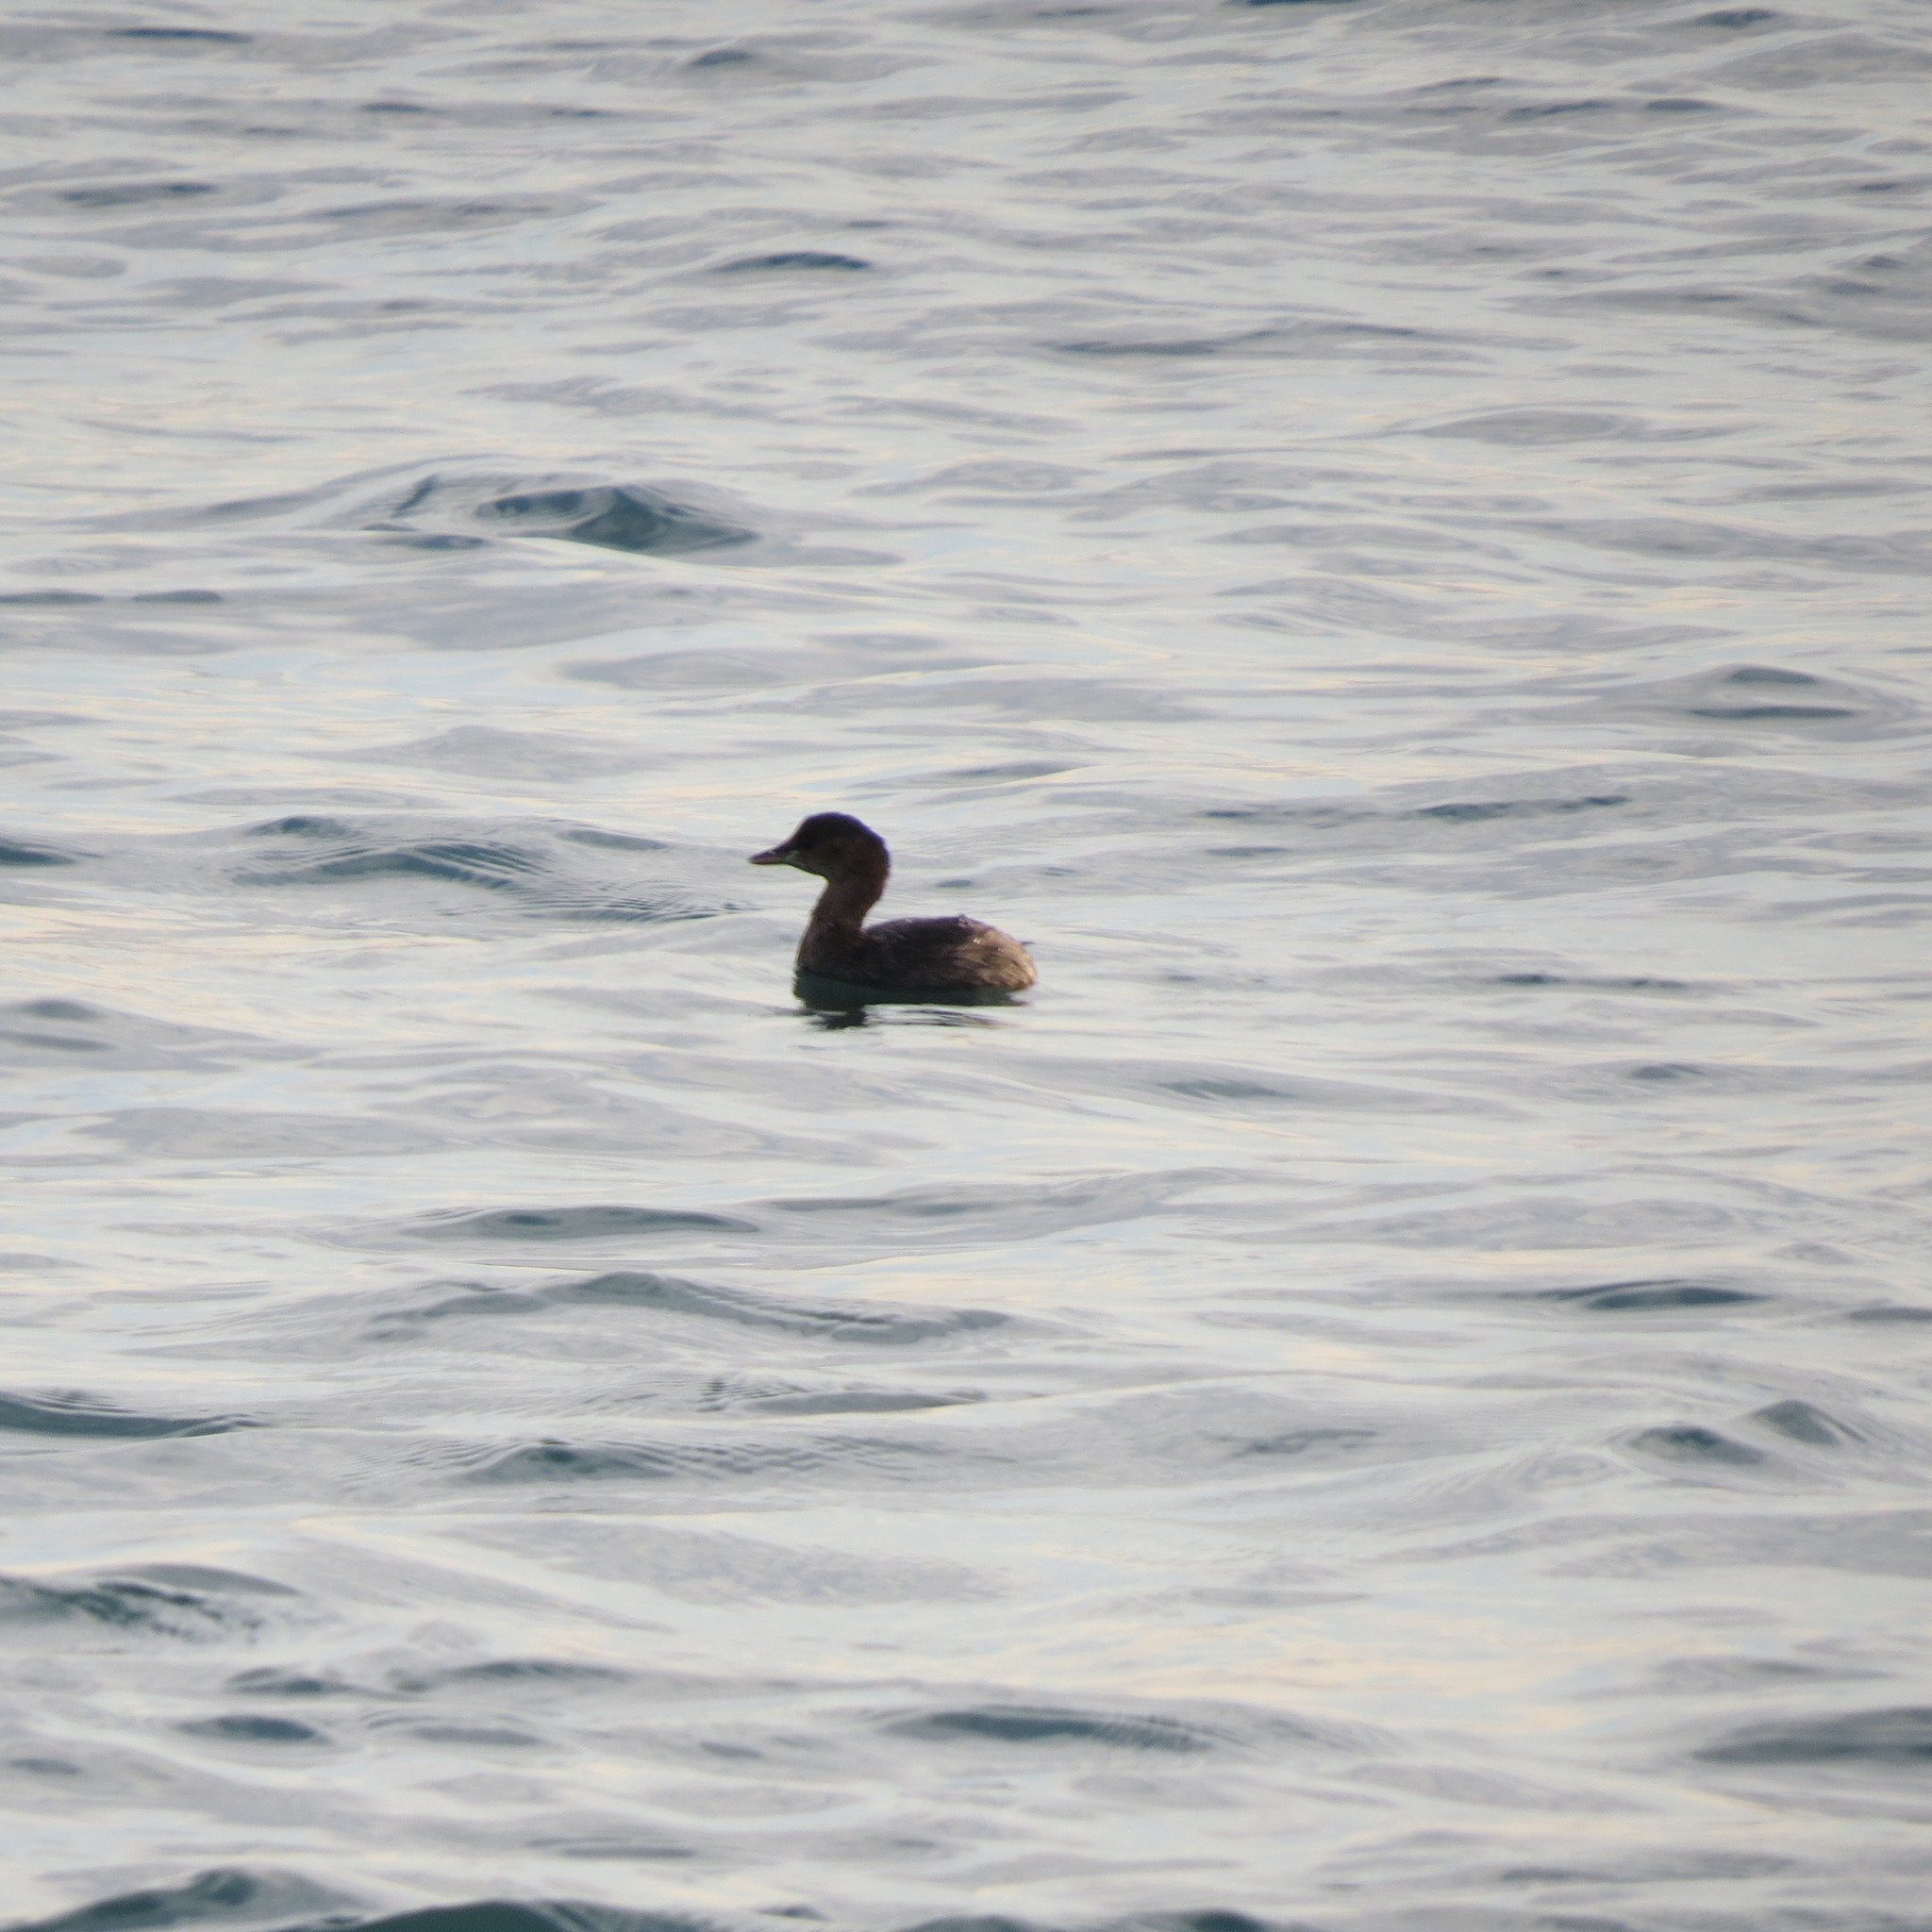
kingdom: Animalia
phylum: Chordata
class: Aves
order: Podicipediformes
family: Podicipedidae
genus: Tachybaptus
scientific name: Tachybaptus ruficollis
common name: Little grebe
